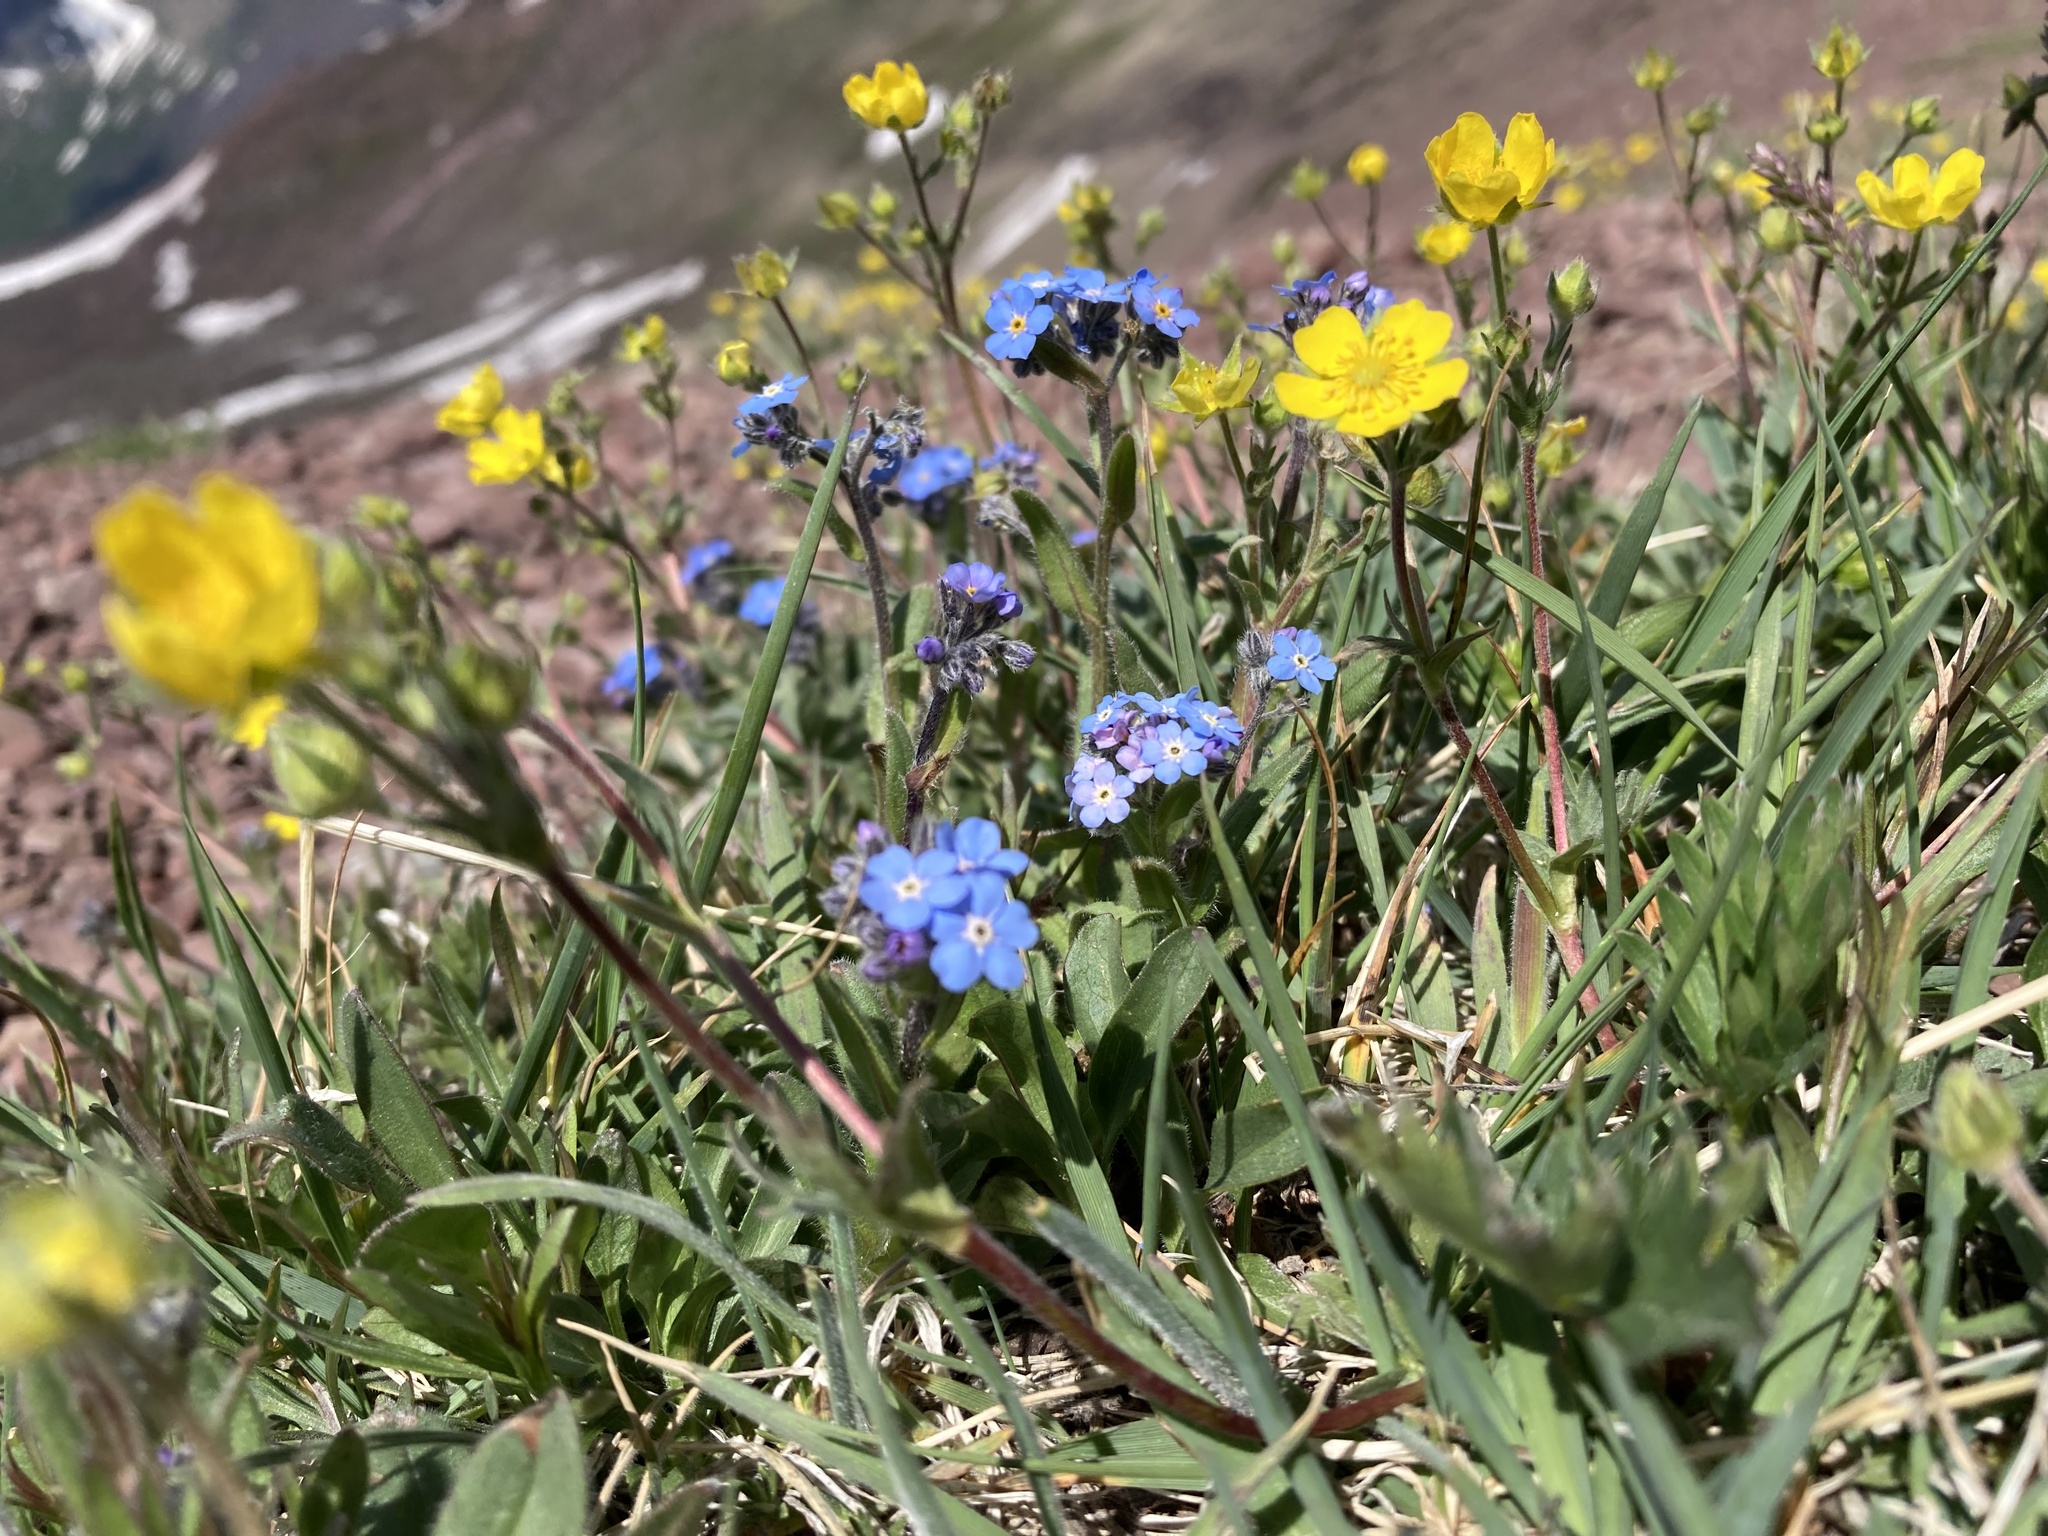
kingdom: Plantae
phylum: Tracheophyta
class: Magnoliopsida
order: Boraginales
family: Boraginaceae
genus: Myosotis
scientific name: Myosotis asiatica
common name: Asian forget-me-not
